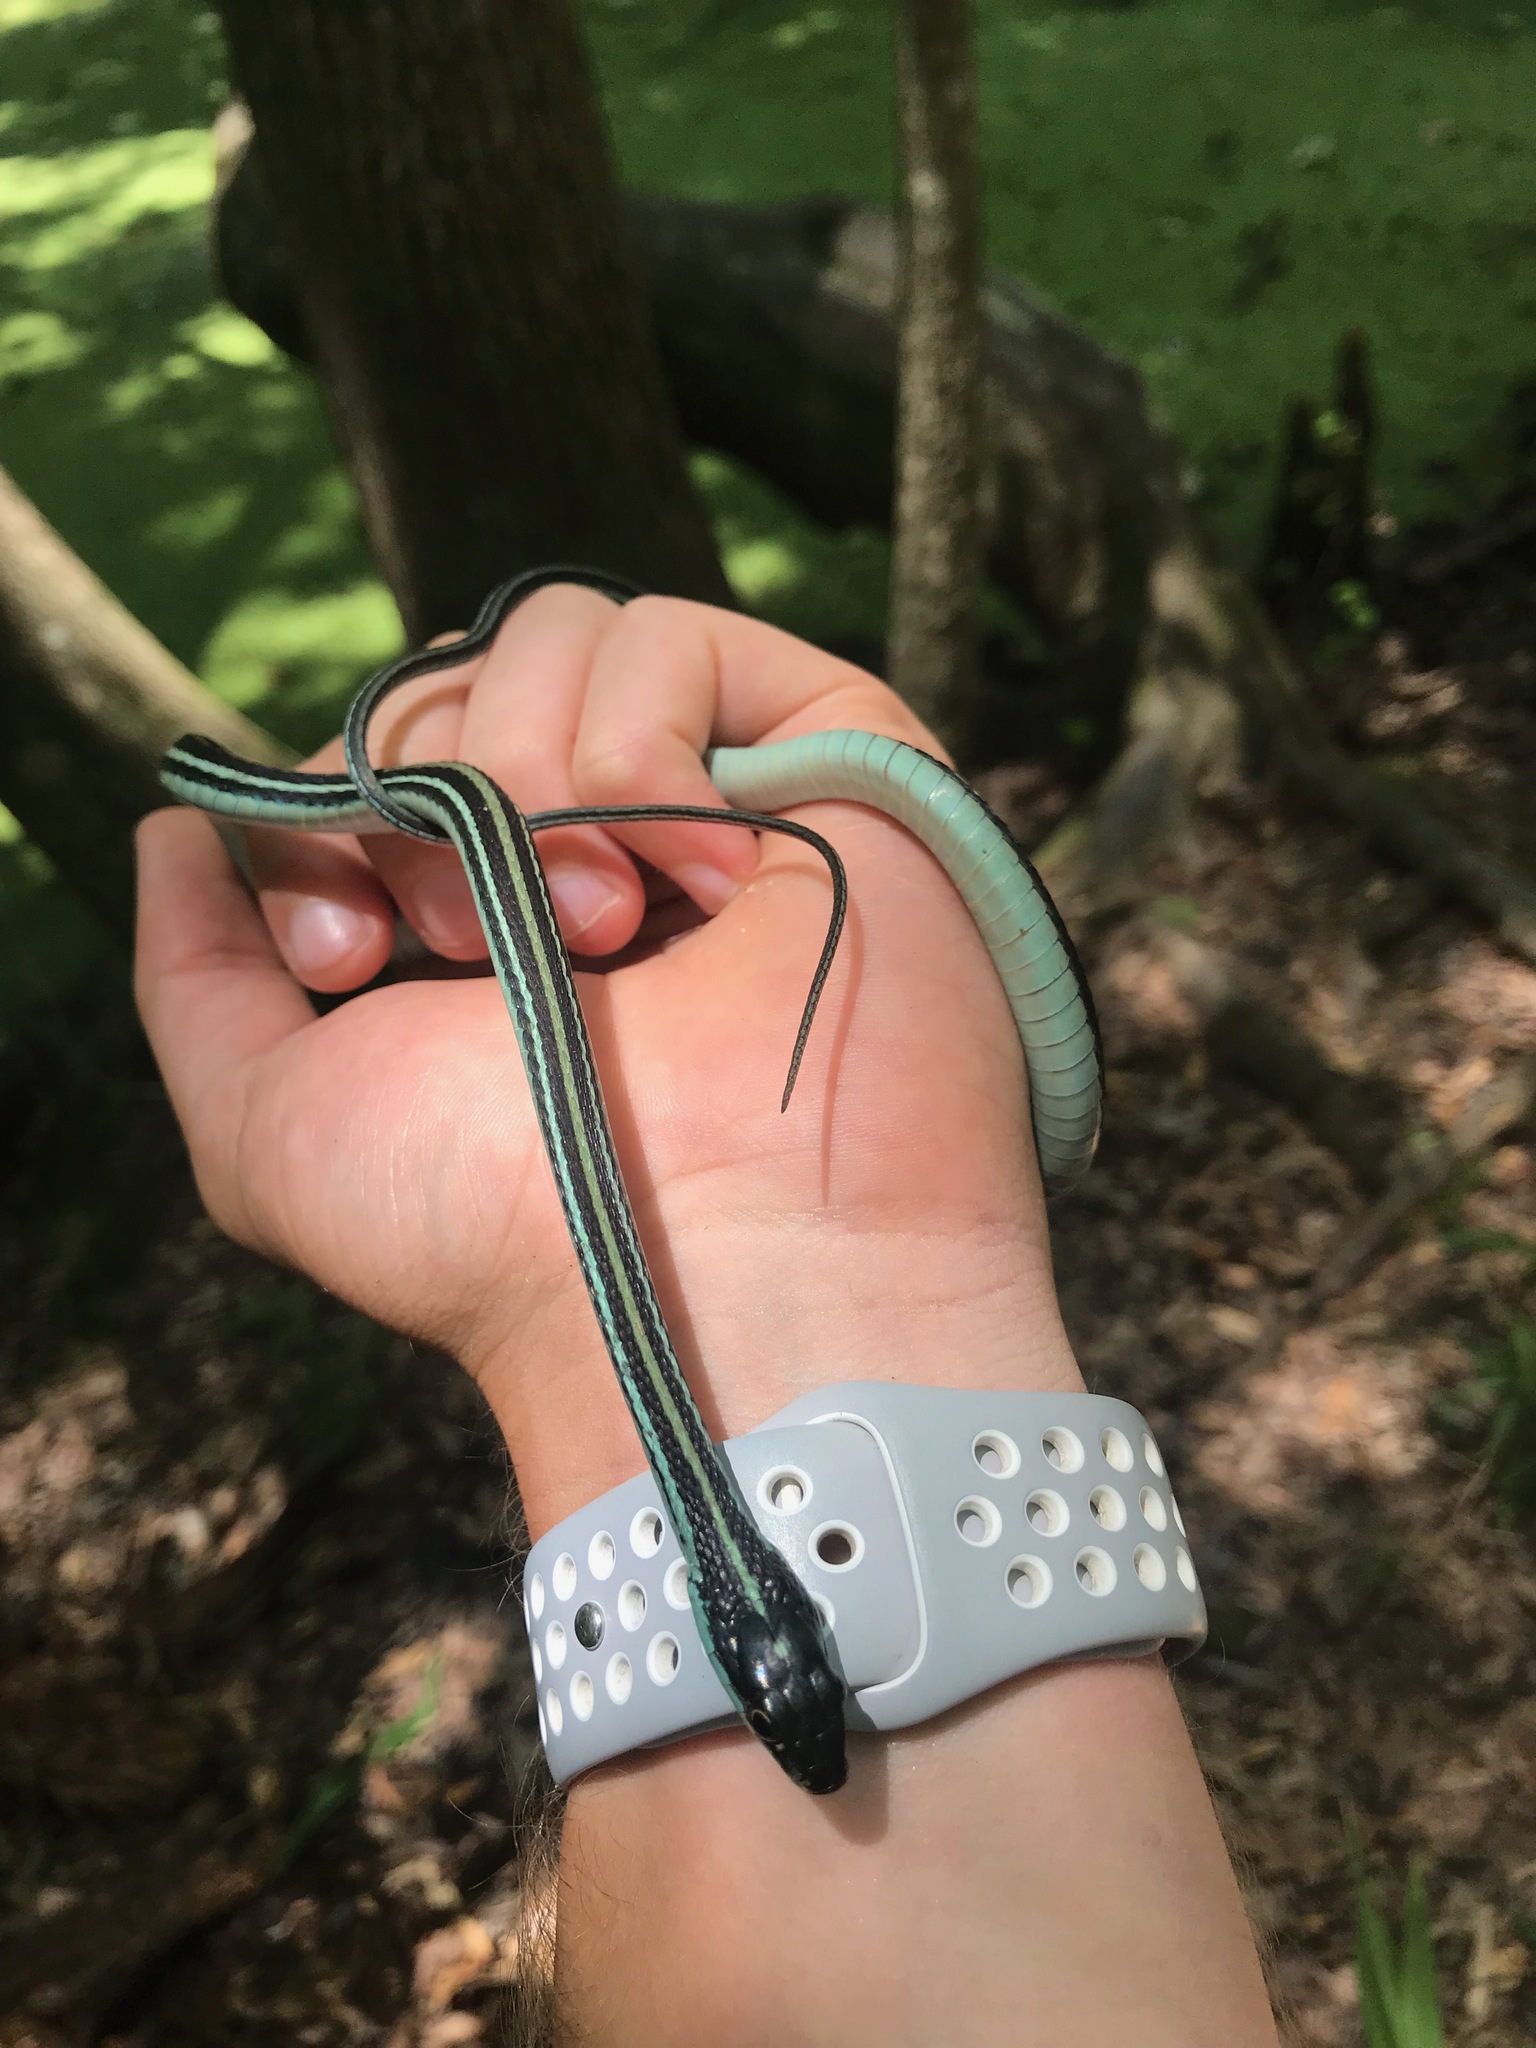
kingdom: Animalia
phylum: Chordata
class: Squamata
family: Colubridae
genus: Thamnophis
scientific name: Thamnophis proximus
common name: Western ribbon snake
